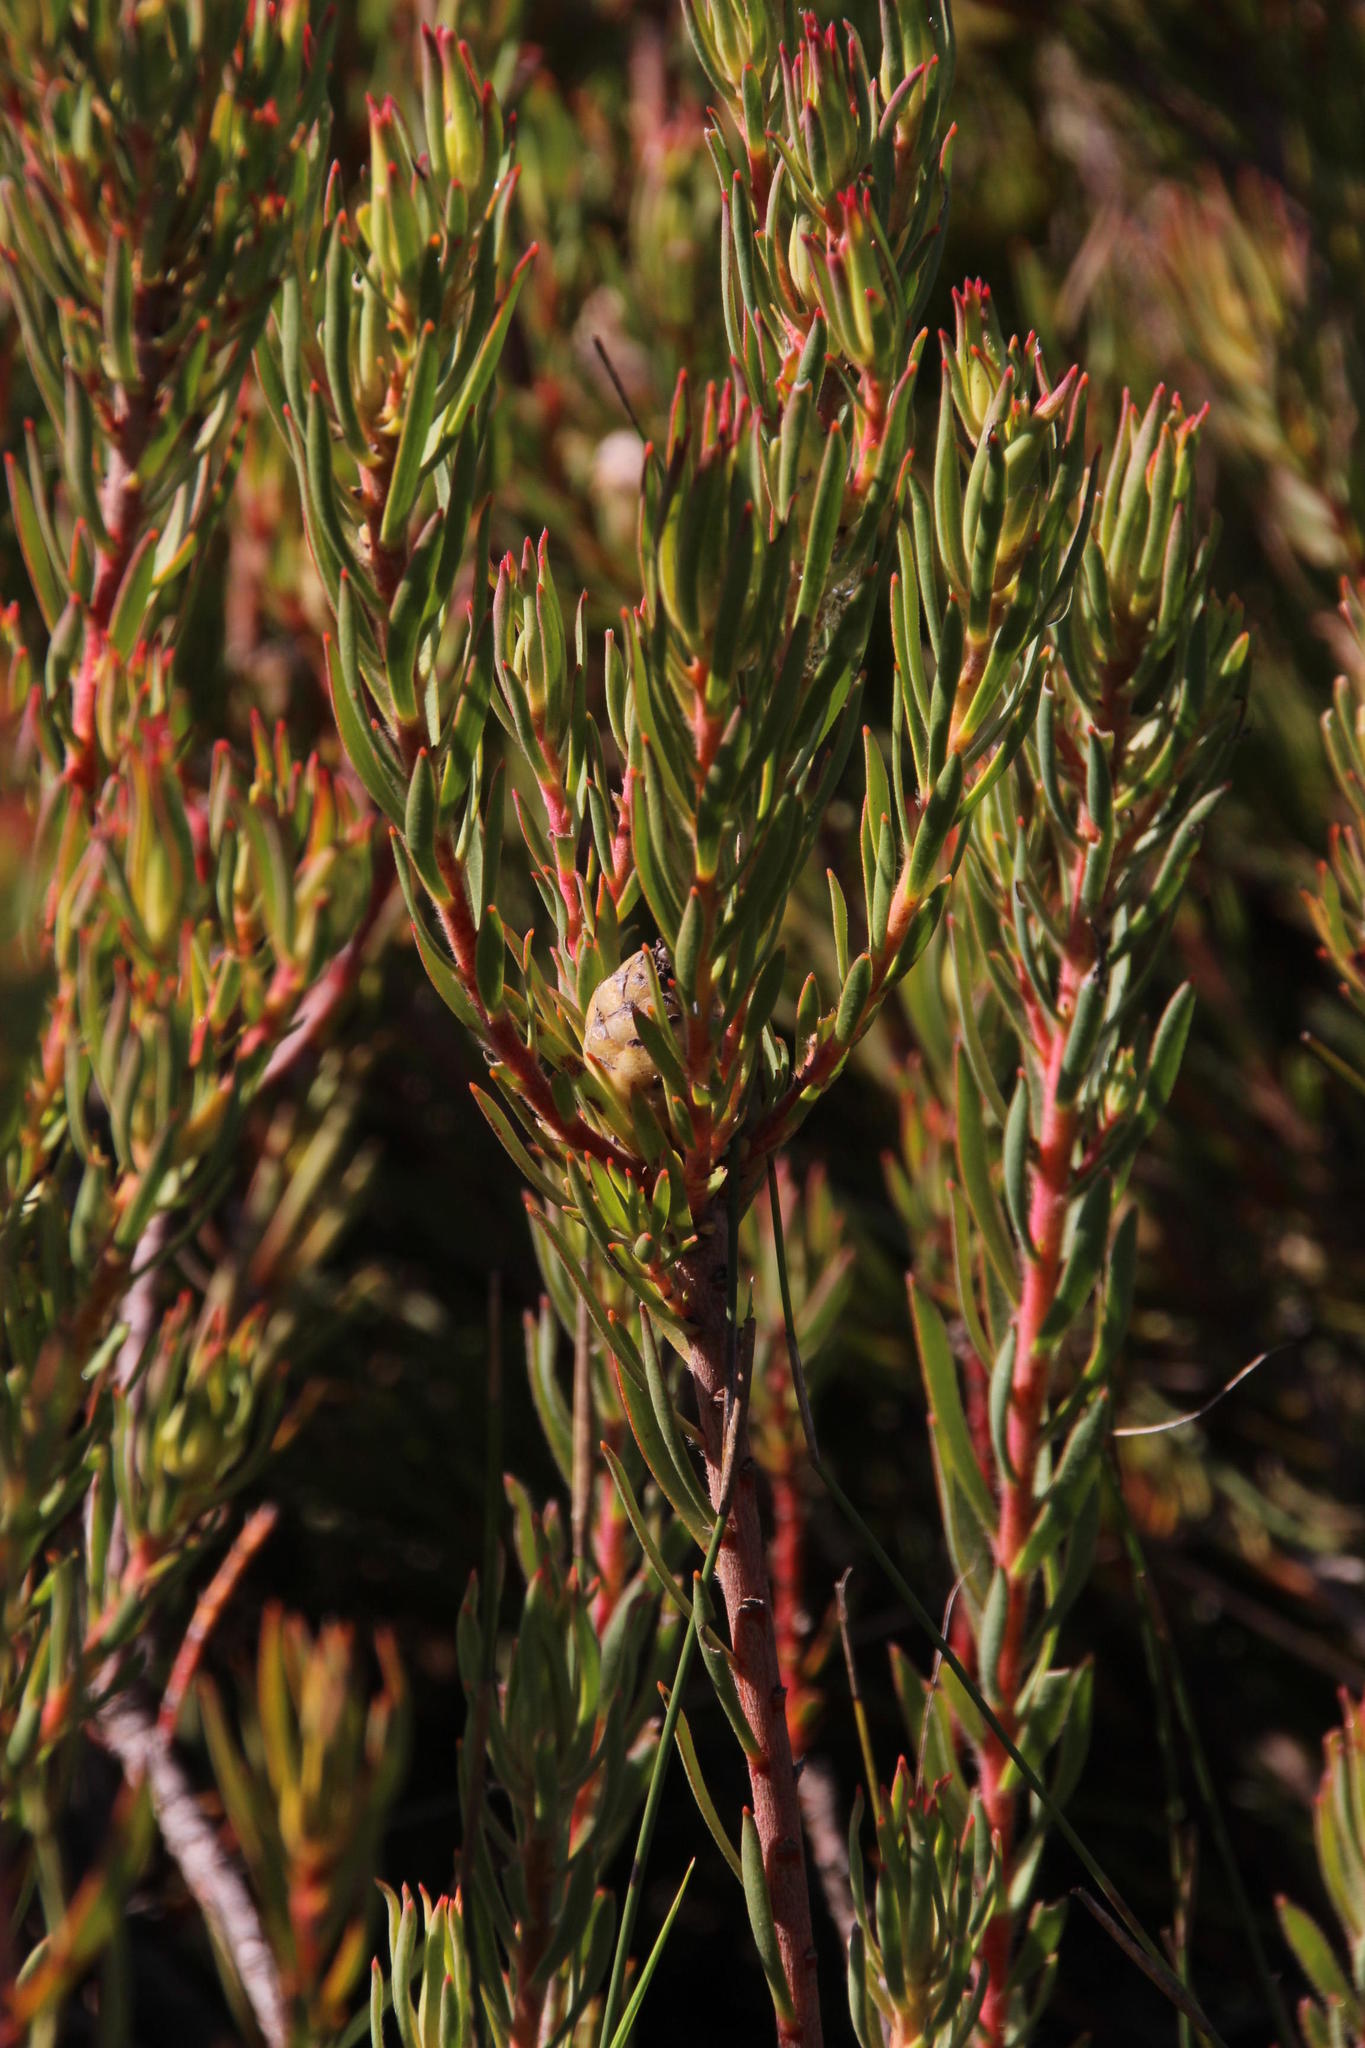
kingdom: Plantae
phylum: Tracheophyta
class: Magnoliopsida
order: Proteales
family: Proteaceae
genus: Leucadendron
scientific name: Leucadendron lanigerum
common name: Shale conebush
